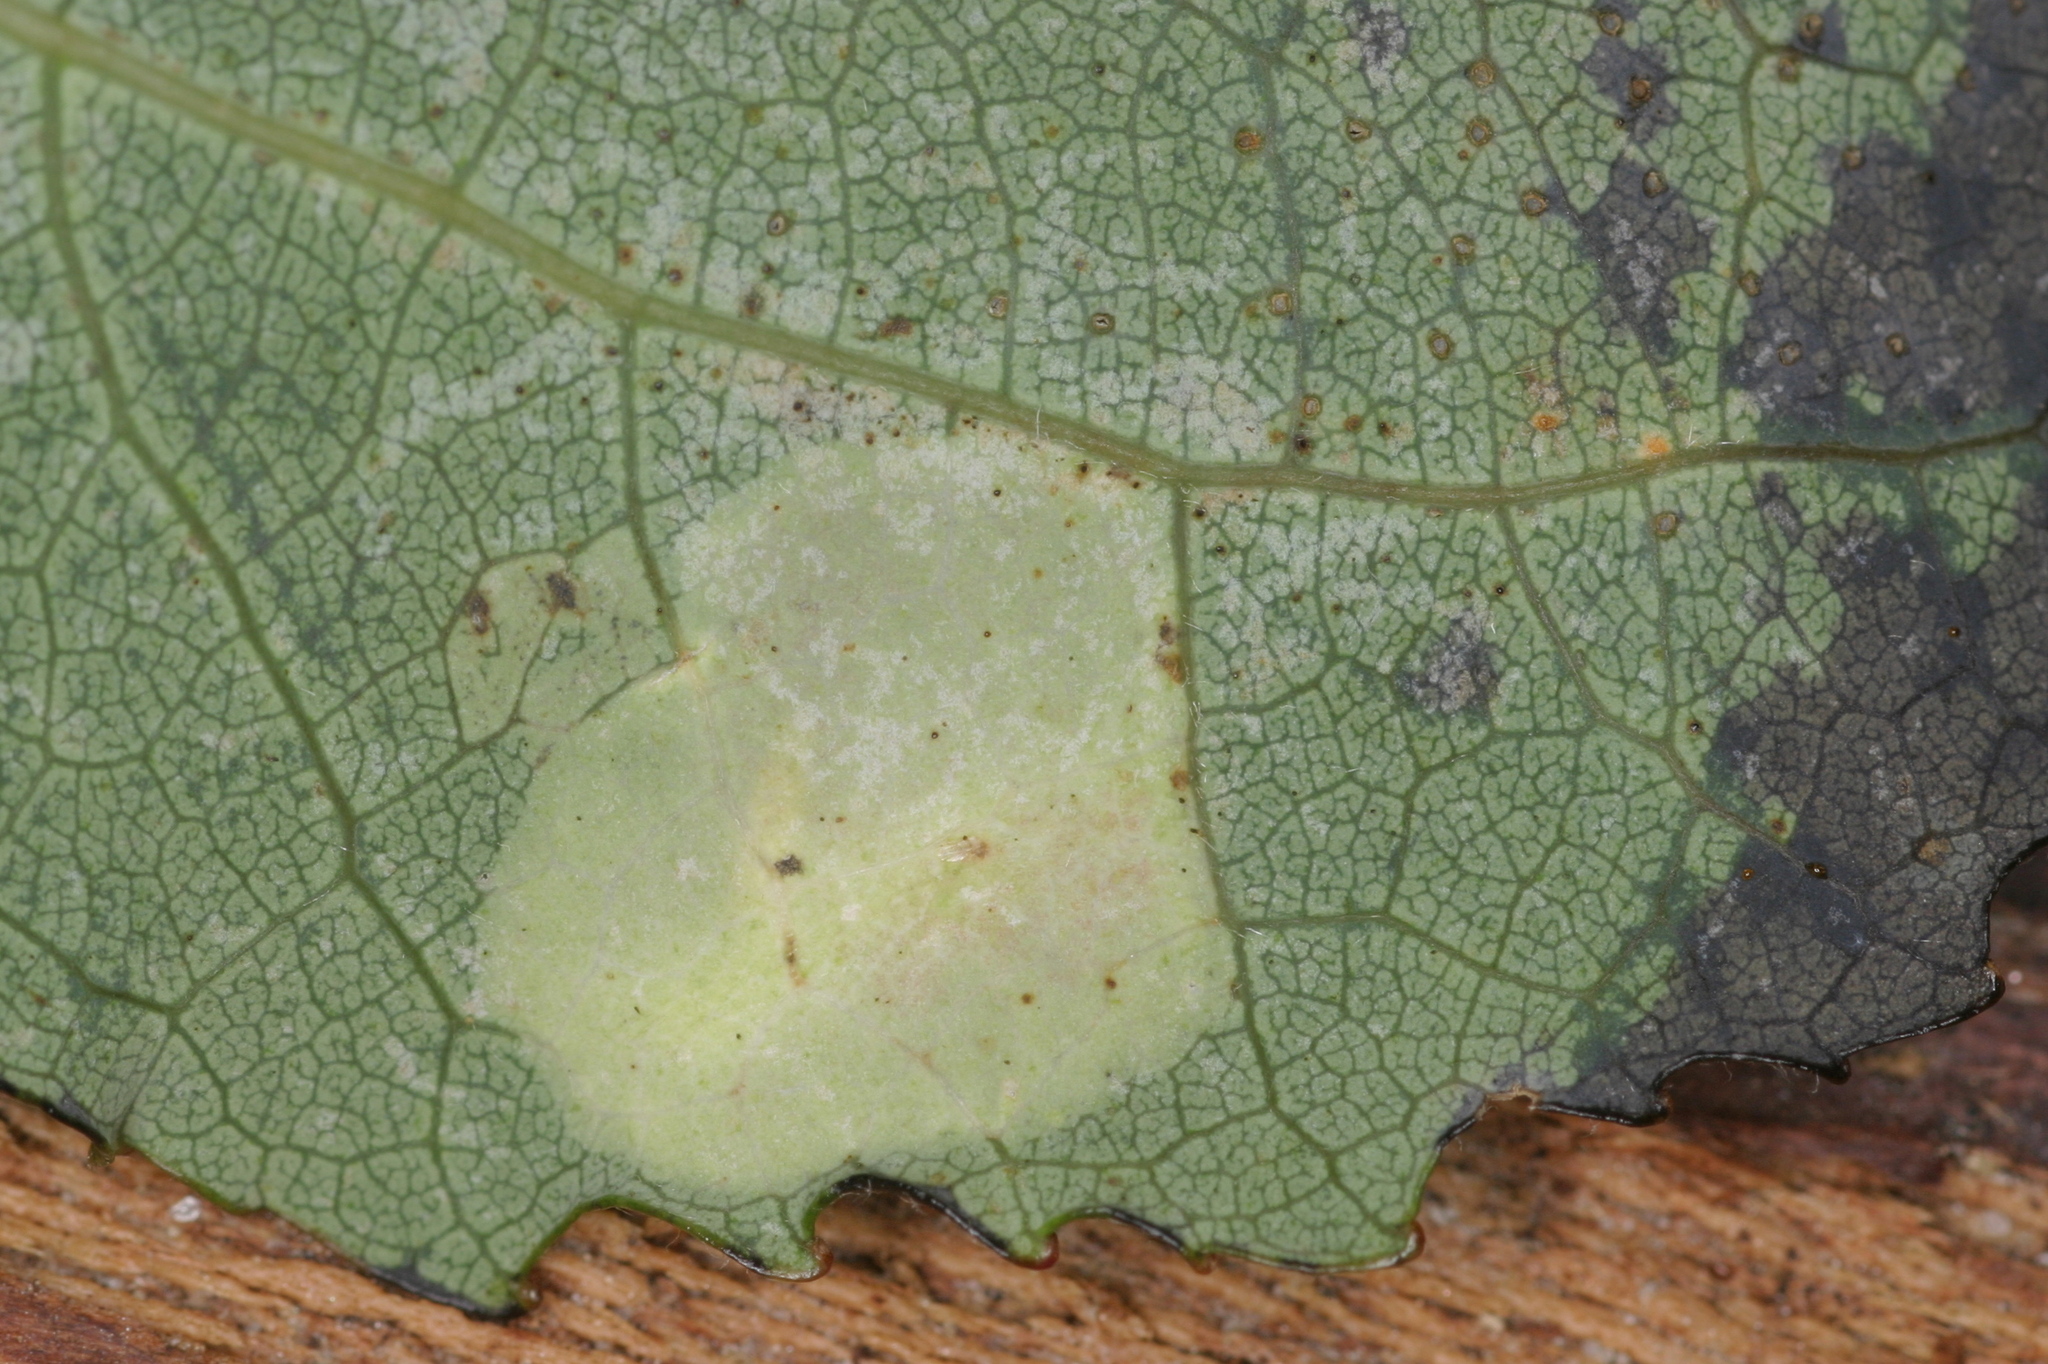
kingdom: Animalia
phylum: Arthropoda
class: Insecta
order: Lepidoptera
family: Gracillariidae
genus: Phyllonorycter
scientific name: Phyllonorycter sagitella
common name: Scarce aspen midget
